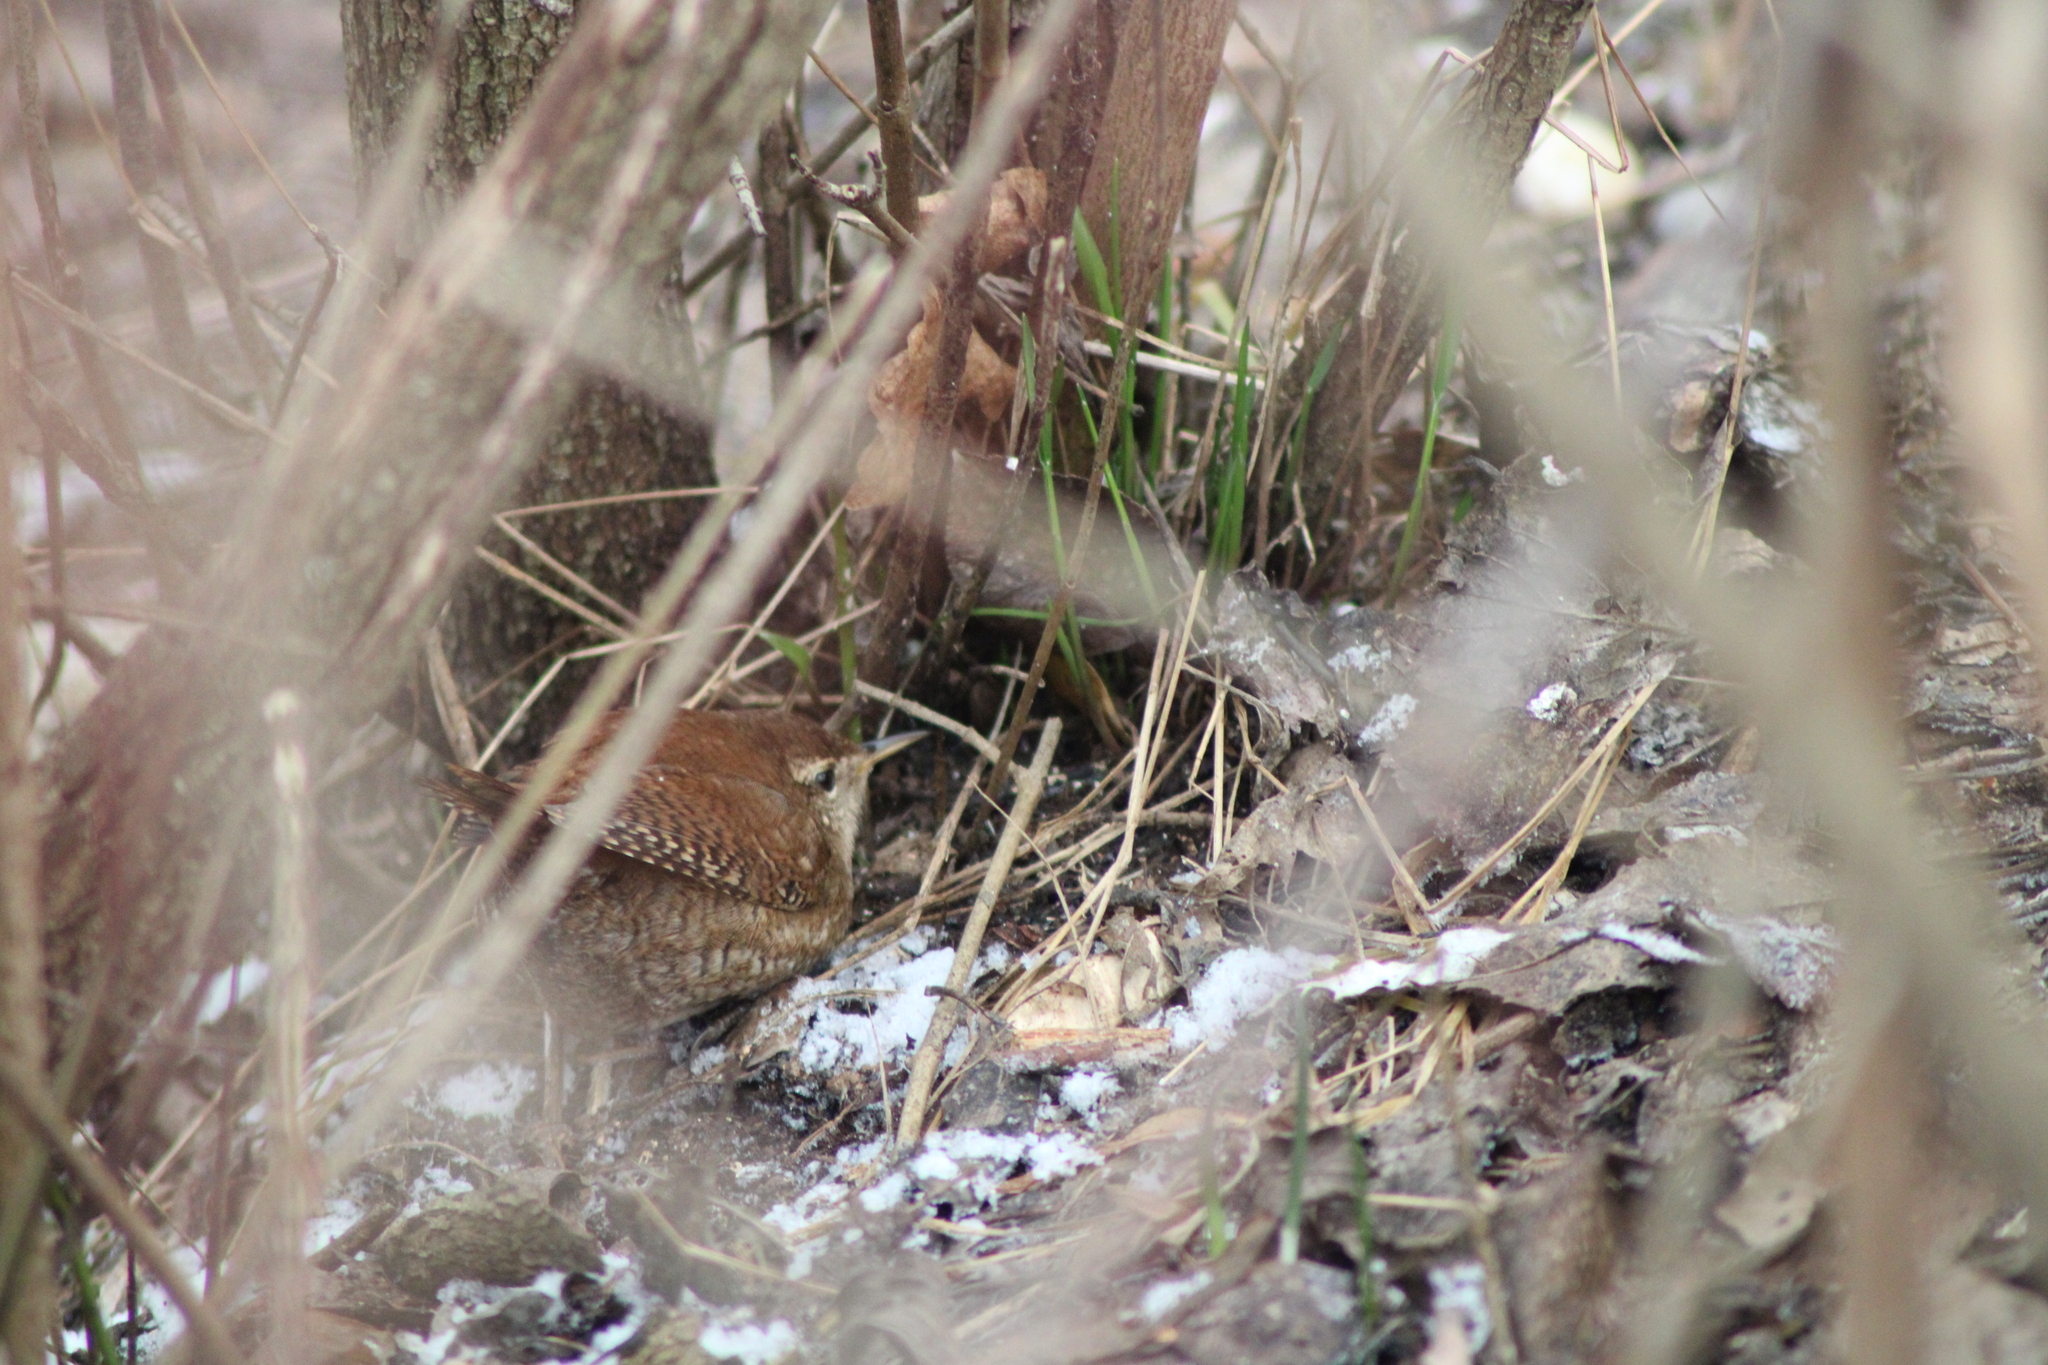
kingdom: Animalia
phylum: Chordata
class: Aves
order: Passeriformes
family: Troglodytidae
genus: Troglodytes
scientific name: Troglodytes troglodytes
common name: Eurasian wren
